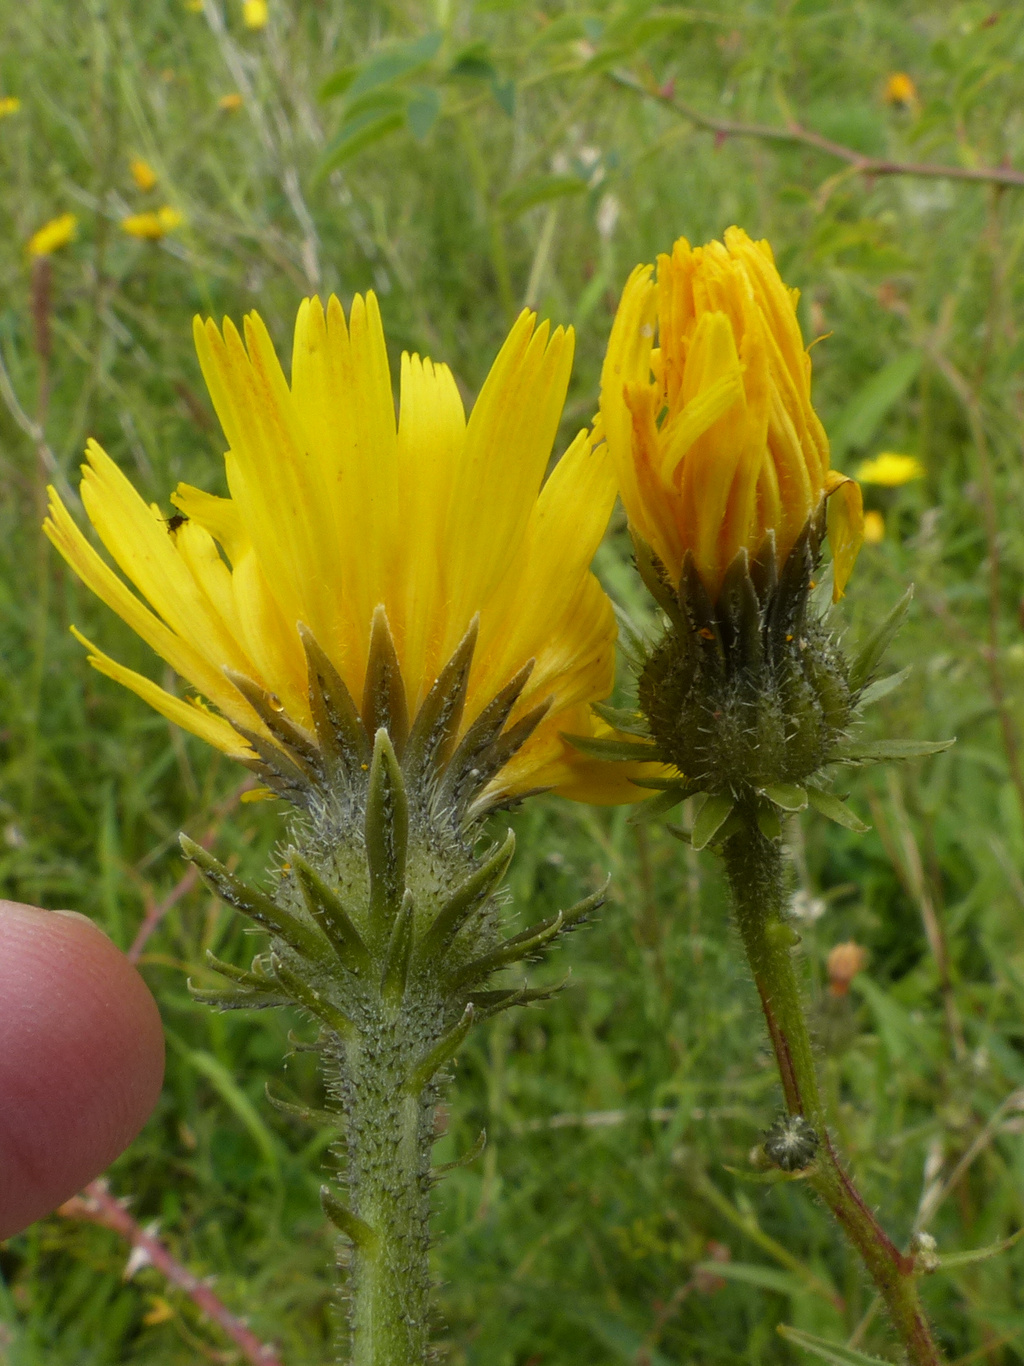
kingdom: Plantae
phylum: Tracheophyta
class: Magnoliopsida
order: Asterales
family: Asteraceae
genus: Picris
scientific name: Picris hieracioides
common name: Hawkweed oxtongue
